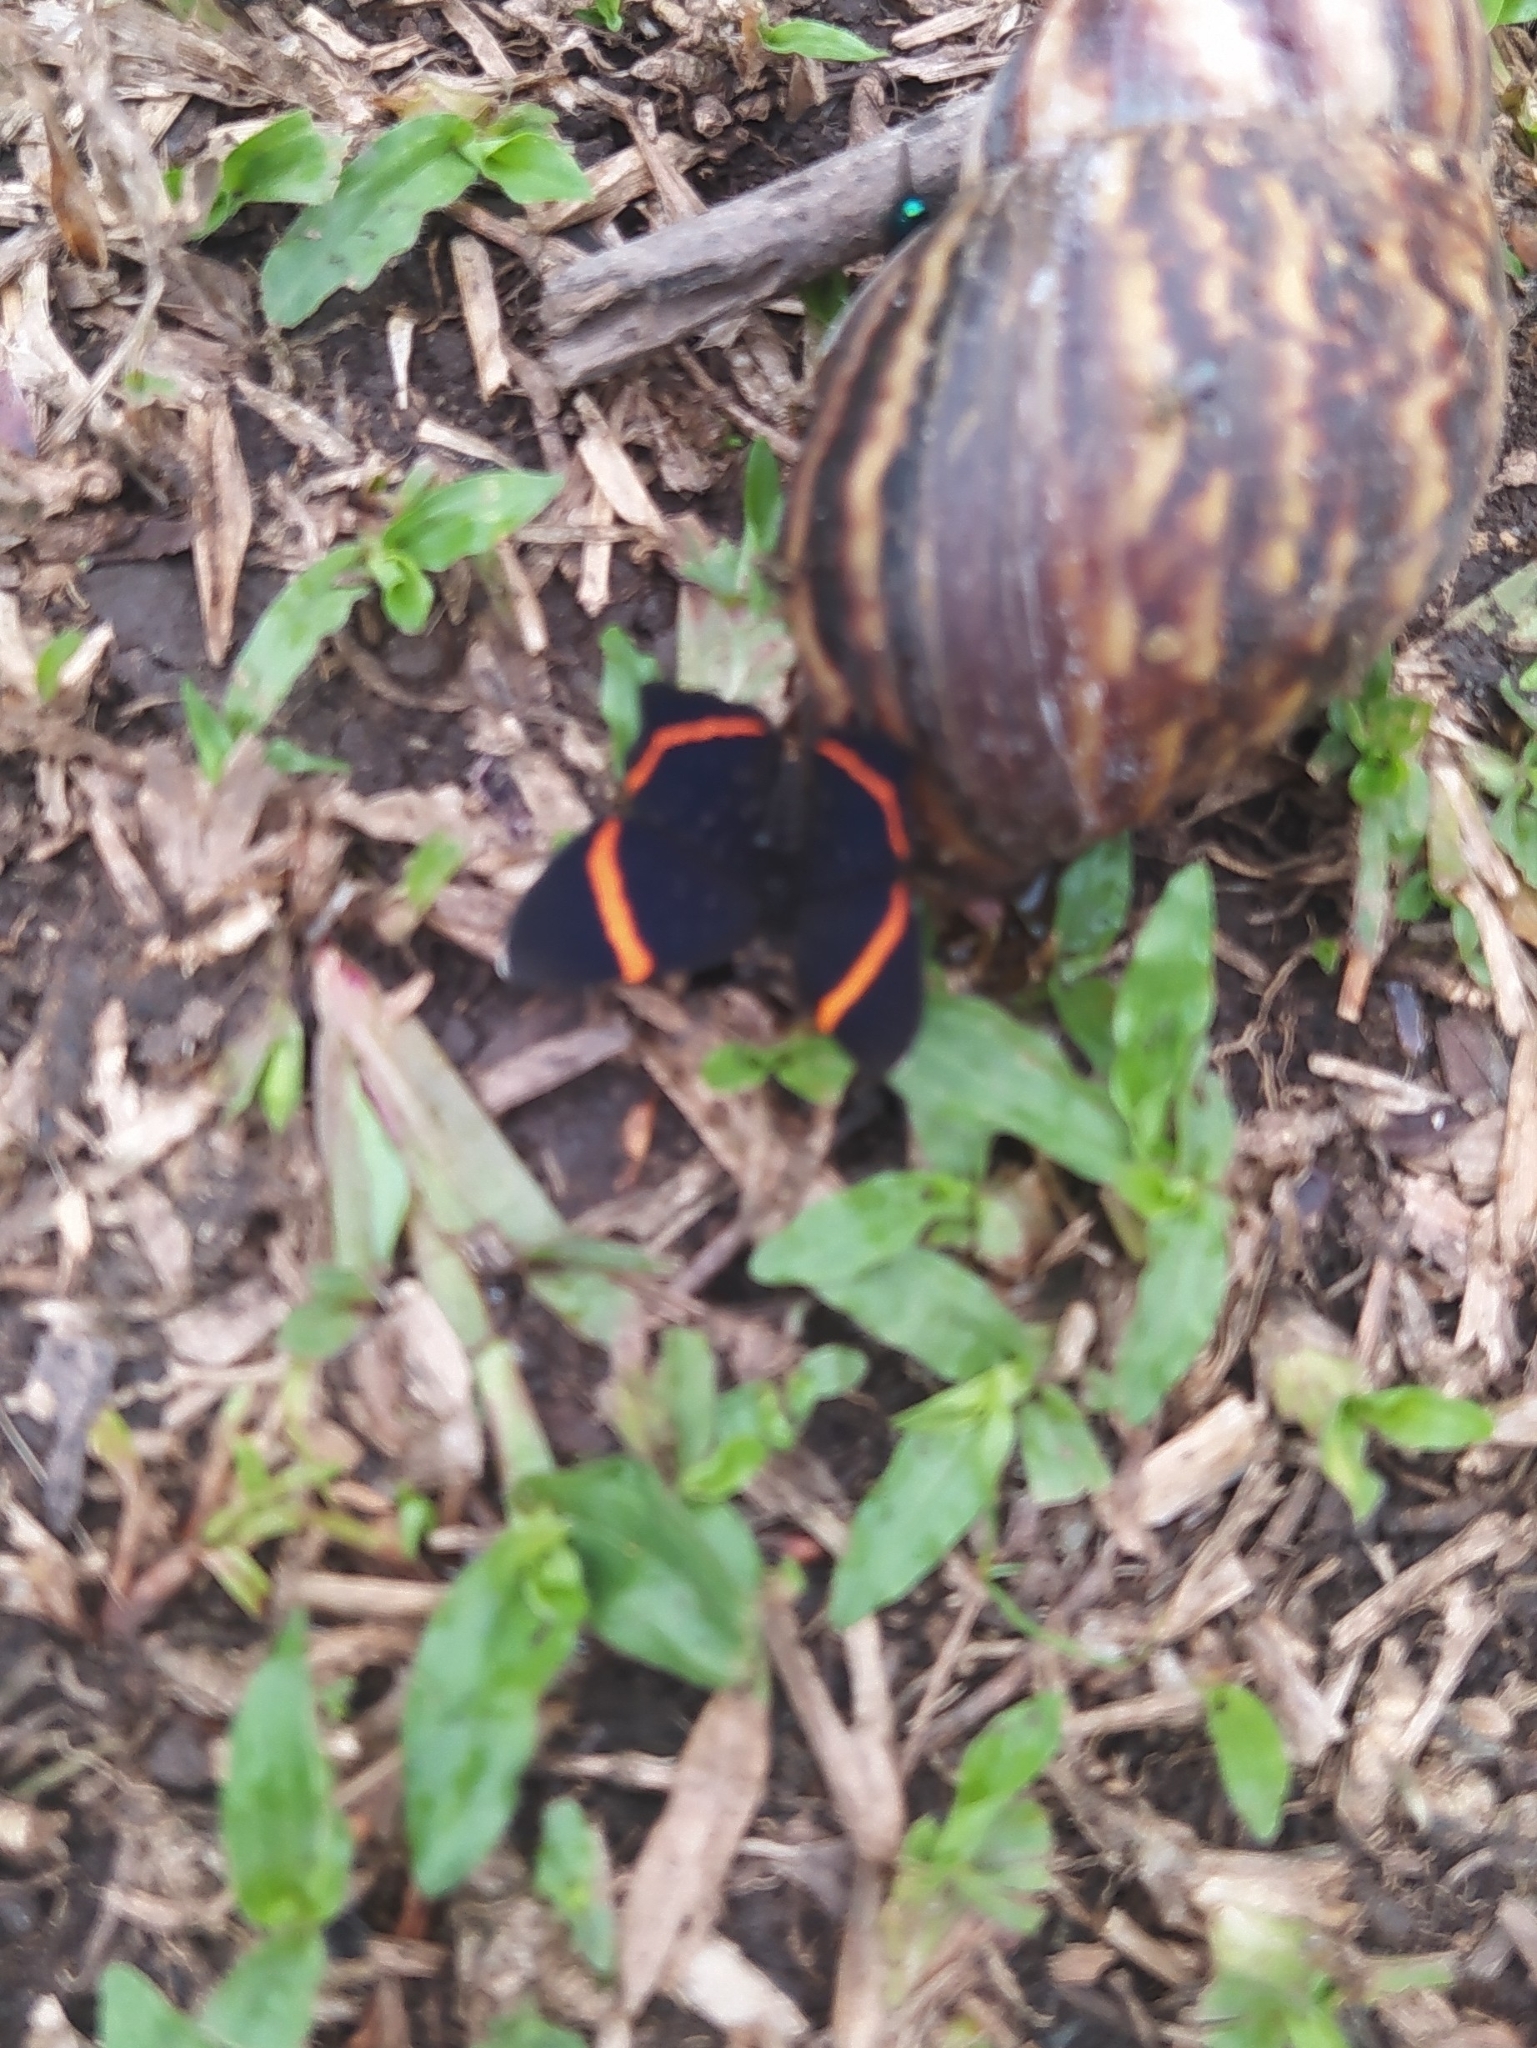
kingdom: Animalia
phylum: Arthropoda
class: Insecta
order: Lepidoptera
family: Riodinidae
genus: Riodina
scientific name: Riodina lysippus
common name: Lysippus metalmark
